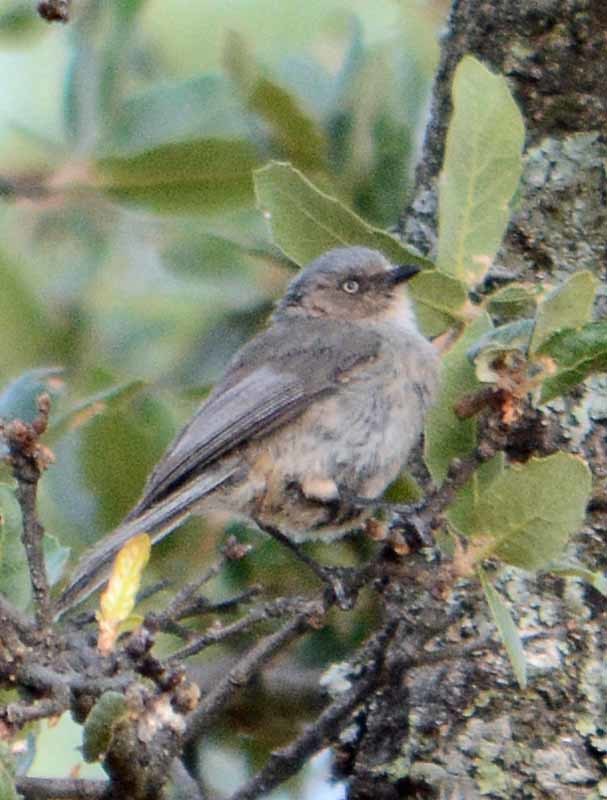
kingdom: Animalia
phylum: Chordata
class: Aves
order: Passeriformes
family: Aegithalidae
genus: Psaltriparus
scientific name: Psaltriparus minimus
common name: American bushtit
